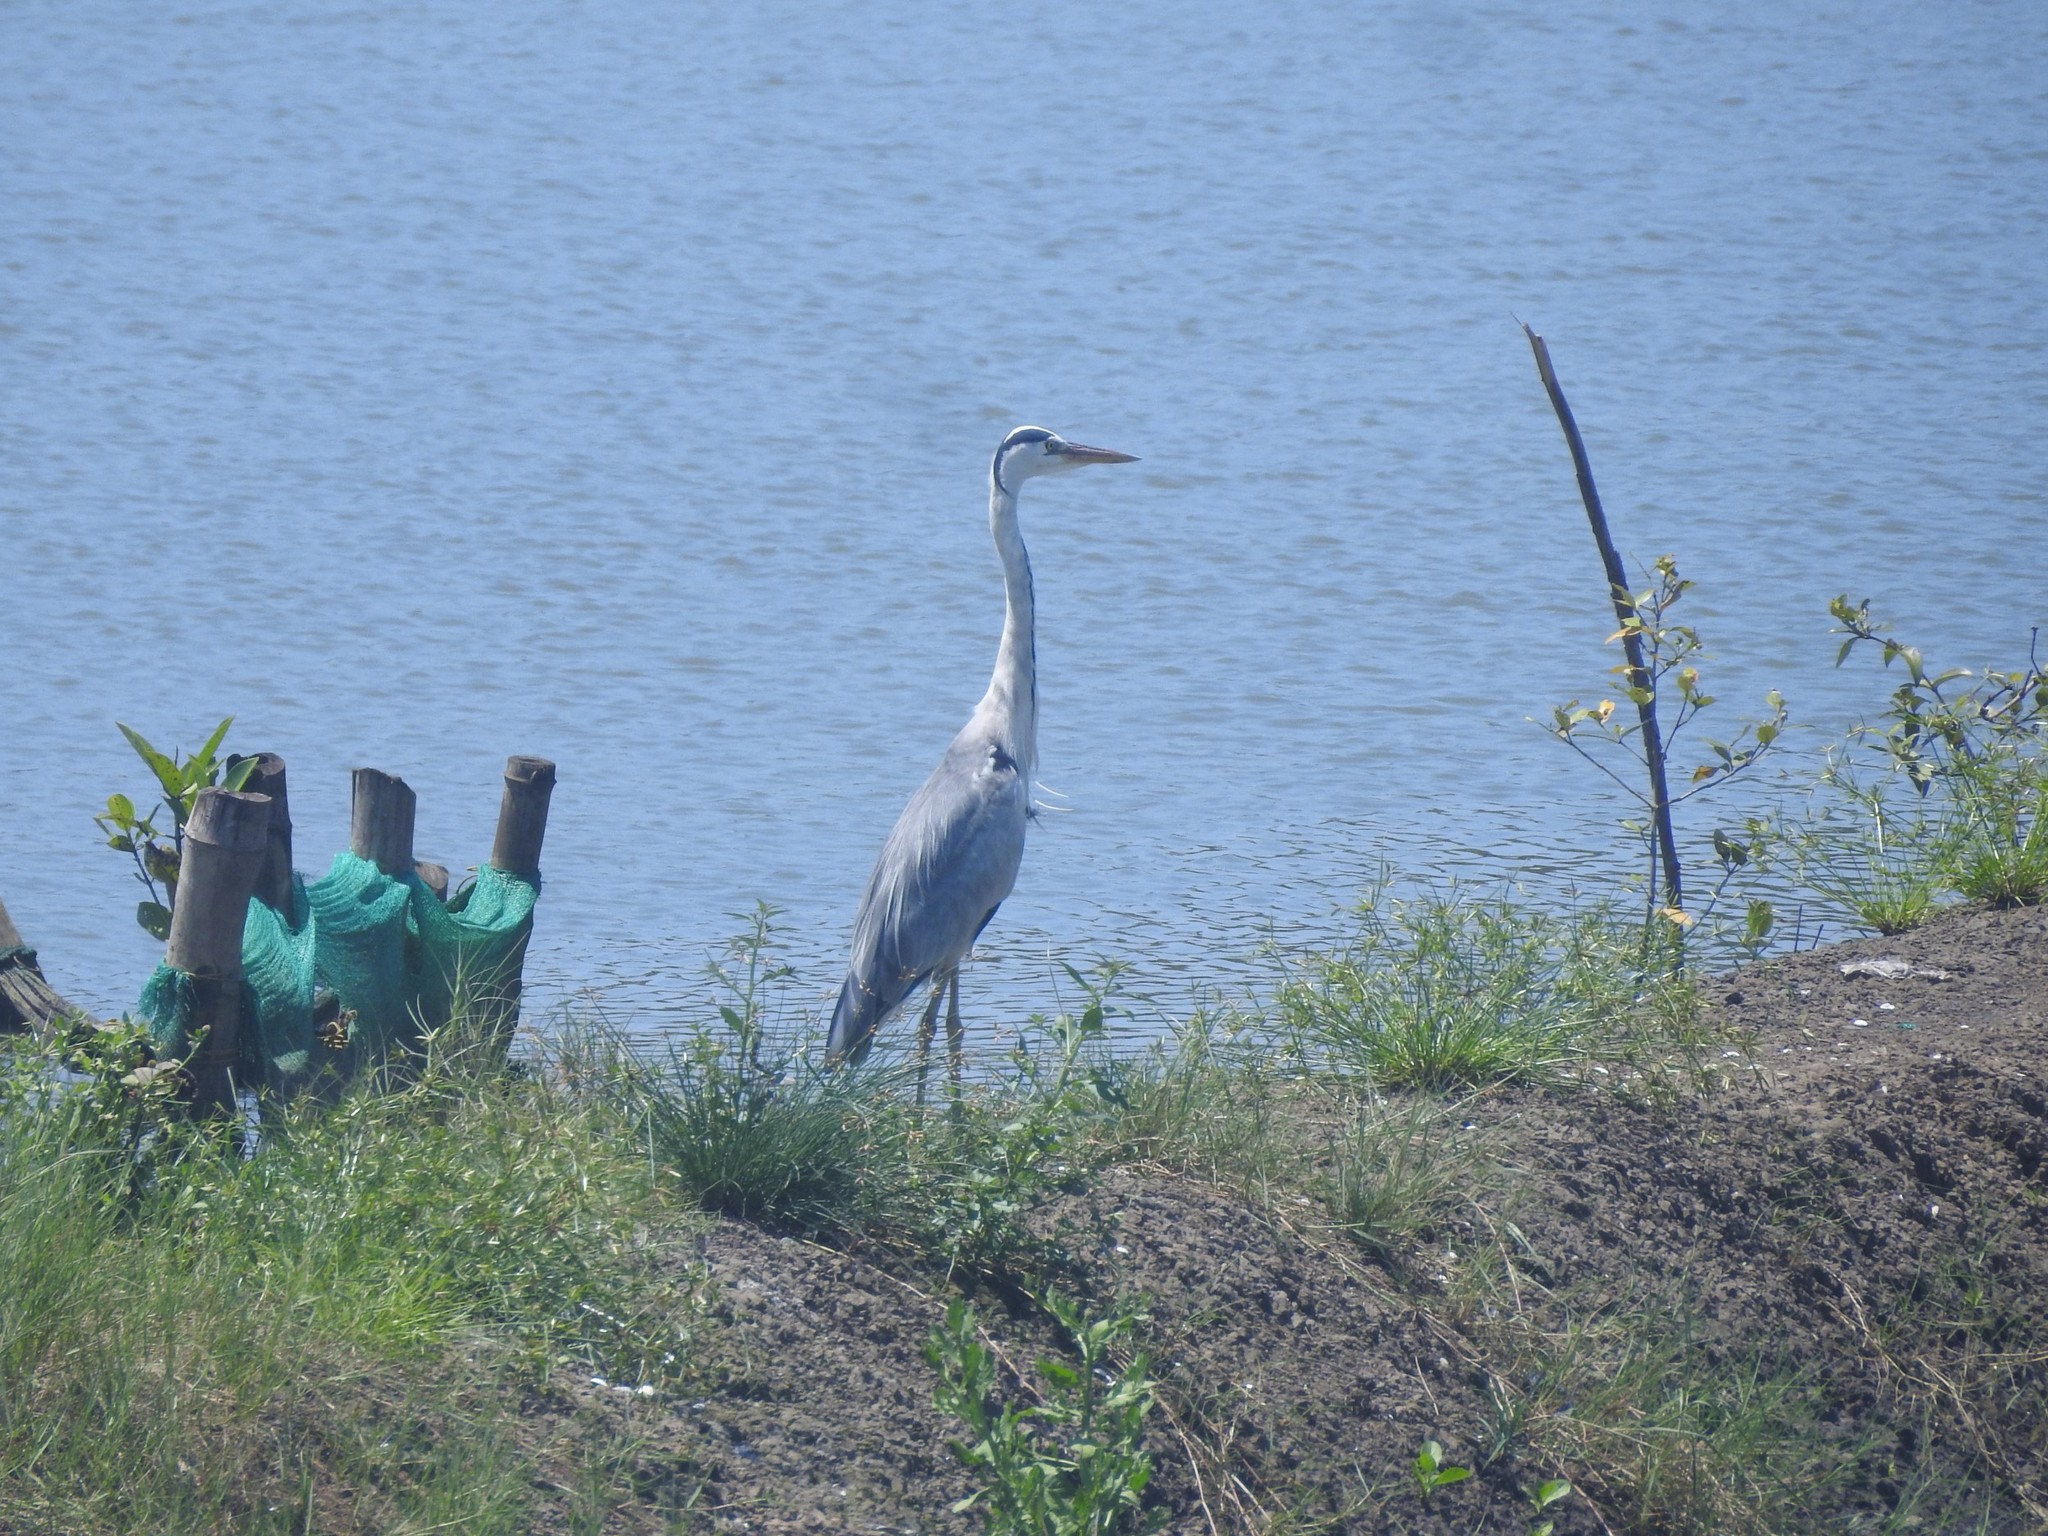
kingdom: Animalia
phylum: Chordata
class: Aves
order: Pelecaniformes
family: Ardeidae
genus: Ardea
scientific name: Ardea cinerea
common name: Grey heron
